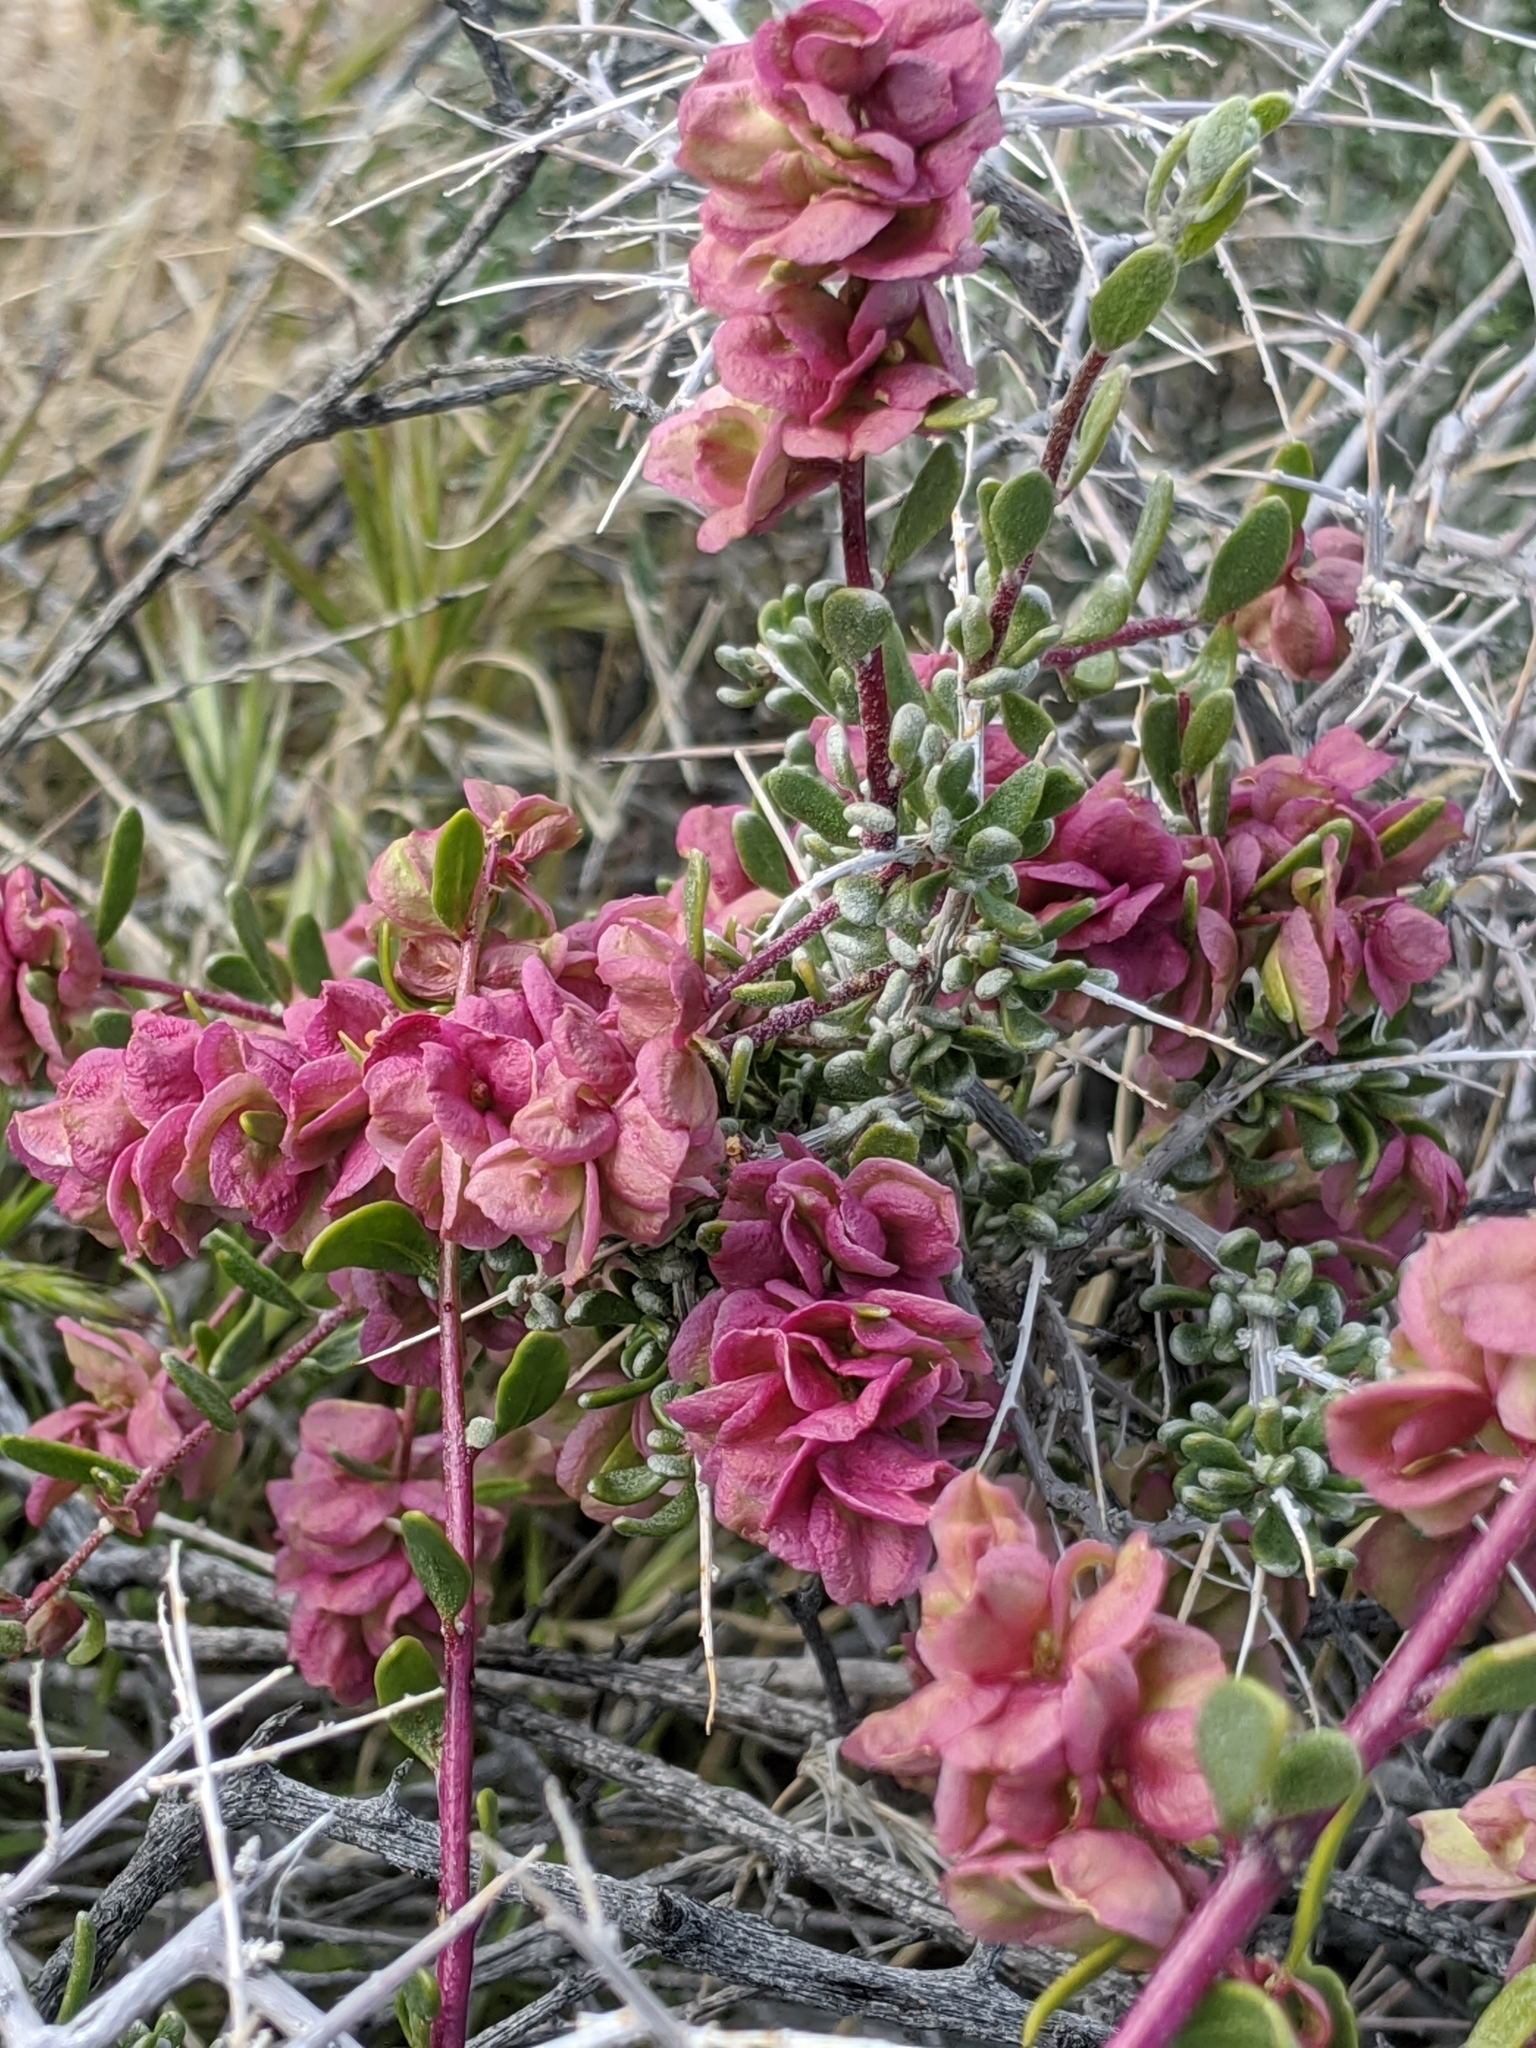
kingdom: Plantae
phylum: Tracheophyta
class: Magnoliopsida
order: Caryophyllales
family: Amaranthaceae
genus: Grayia
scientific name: Grayia spinosa
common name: Spiny hopsage
